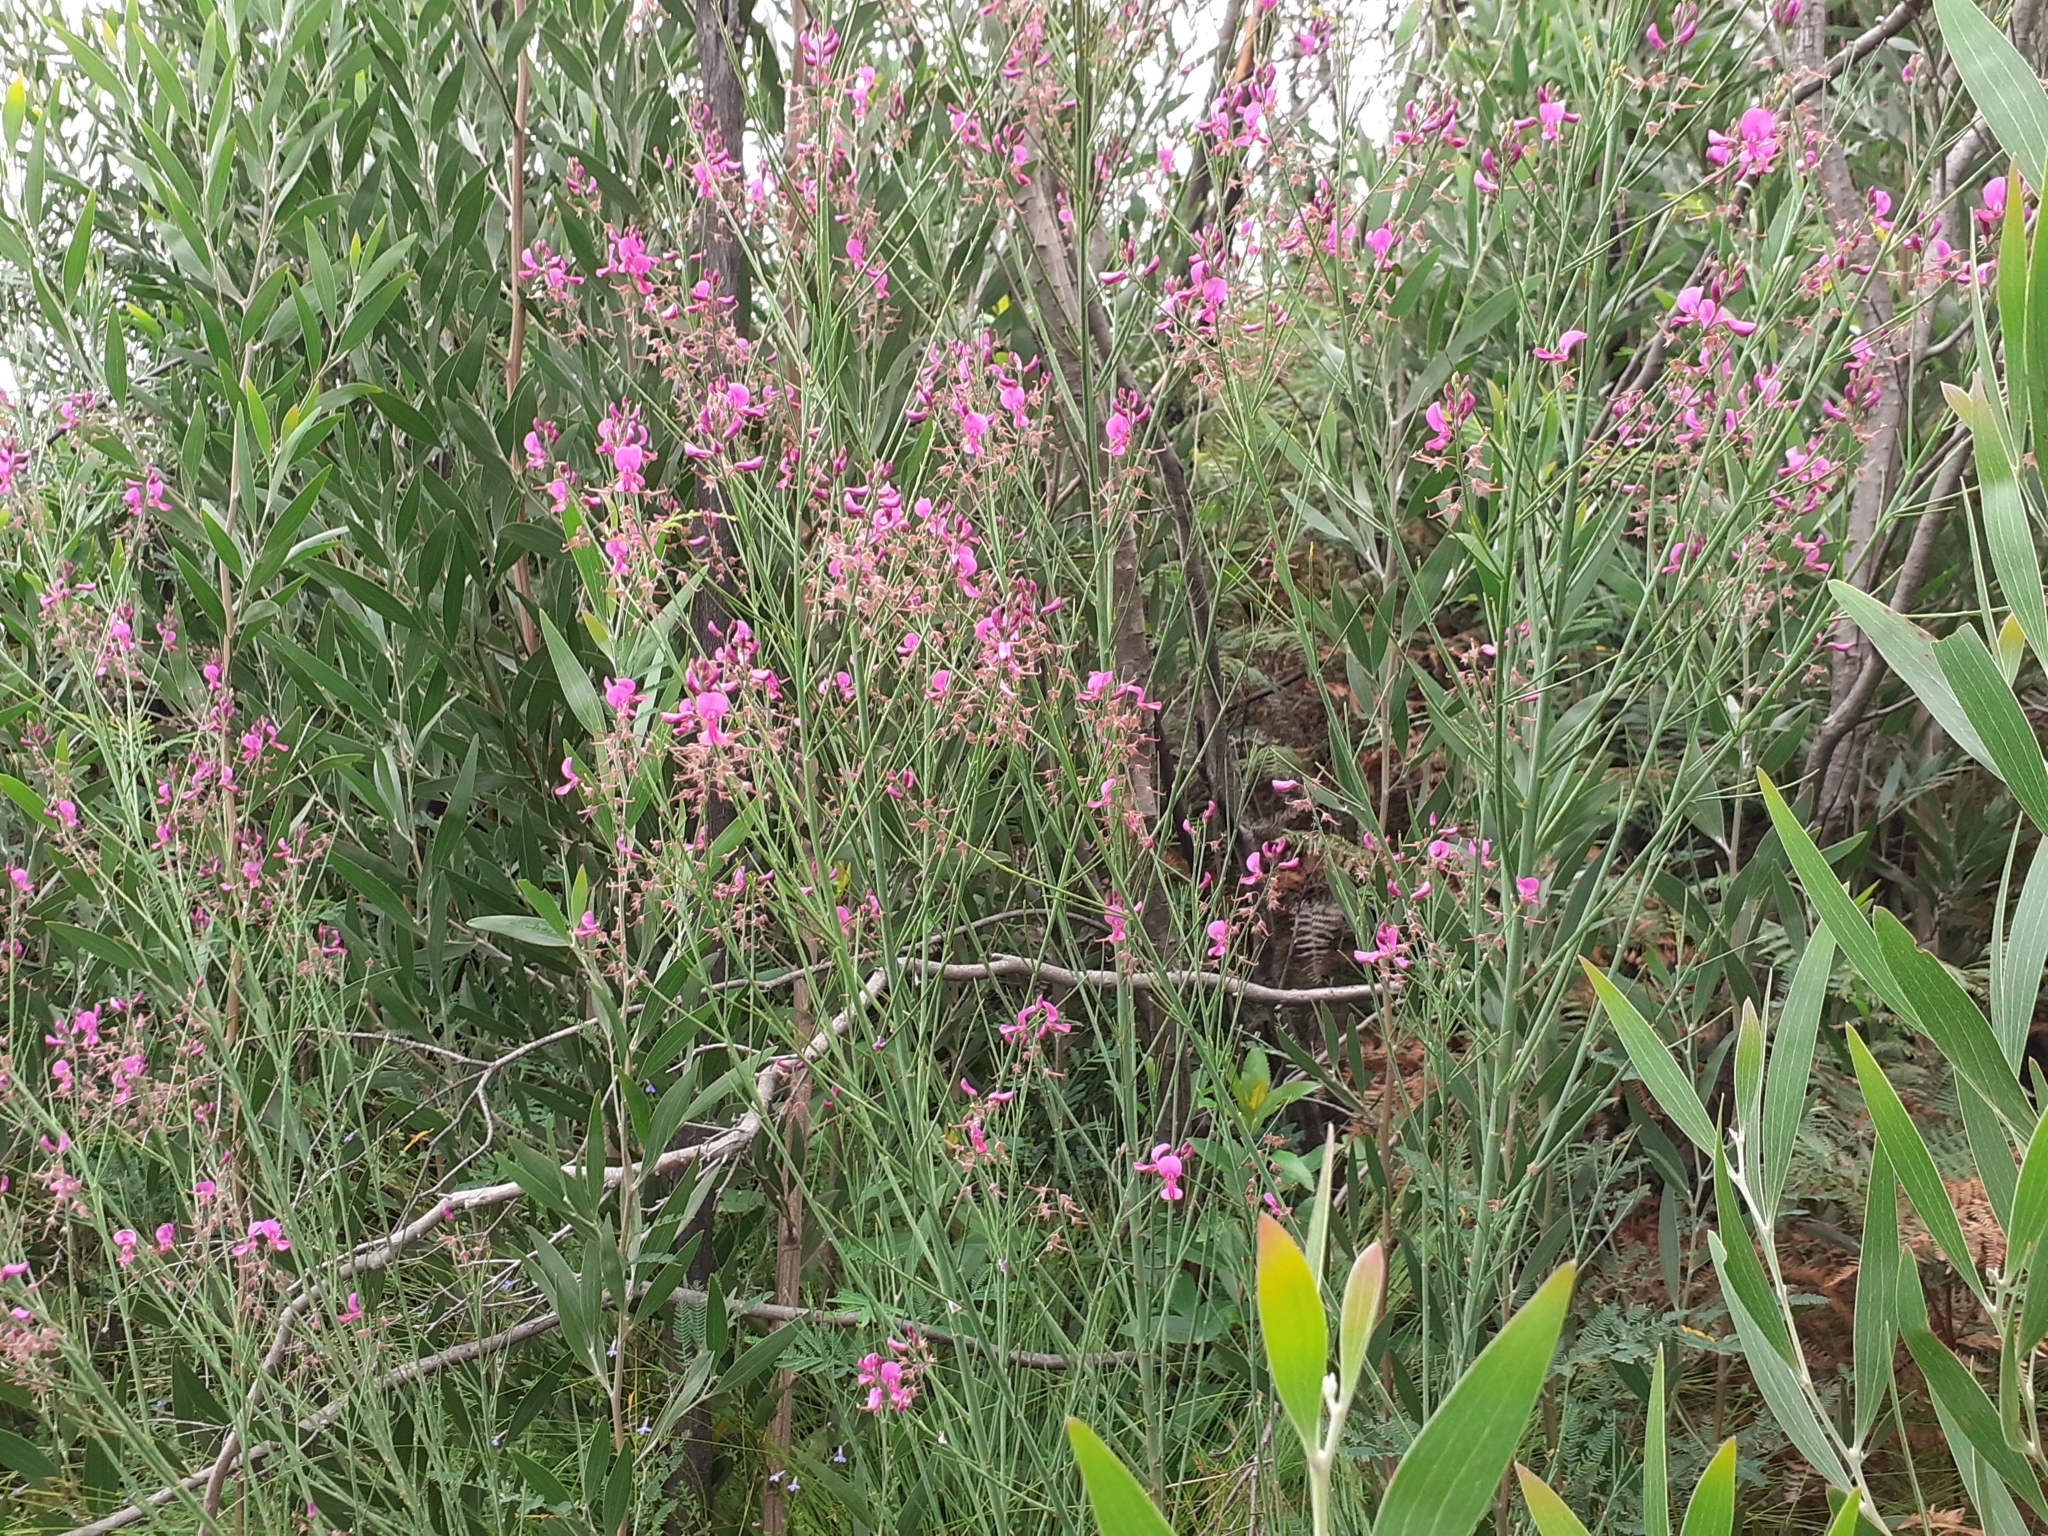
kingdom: Plantae
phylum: Tracheophyta
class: Magnoliopsida
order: Fabales
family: Fabaceae
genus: Indigofera
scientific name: Indigofera filifolia
